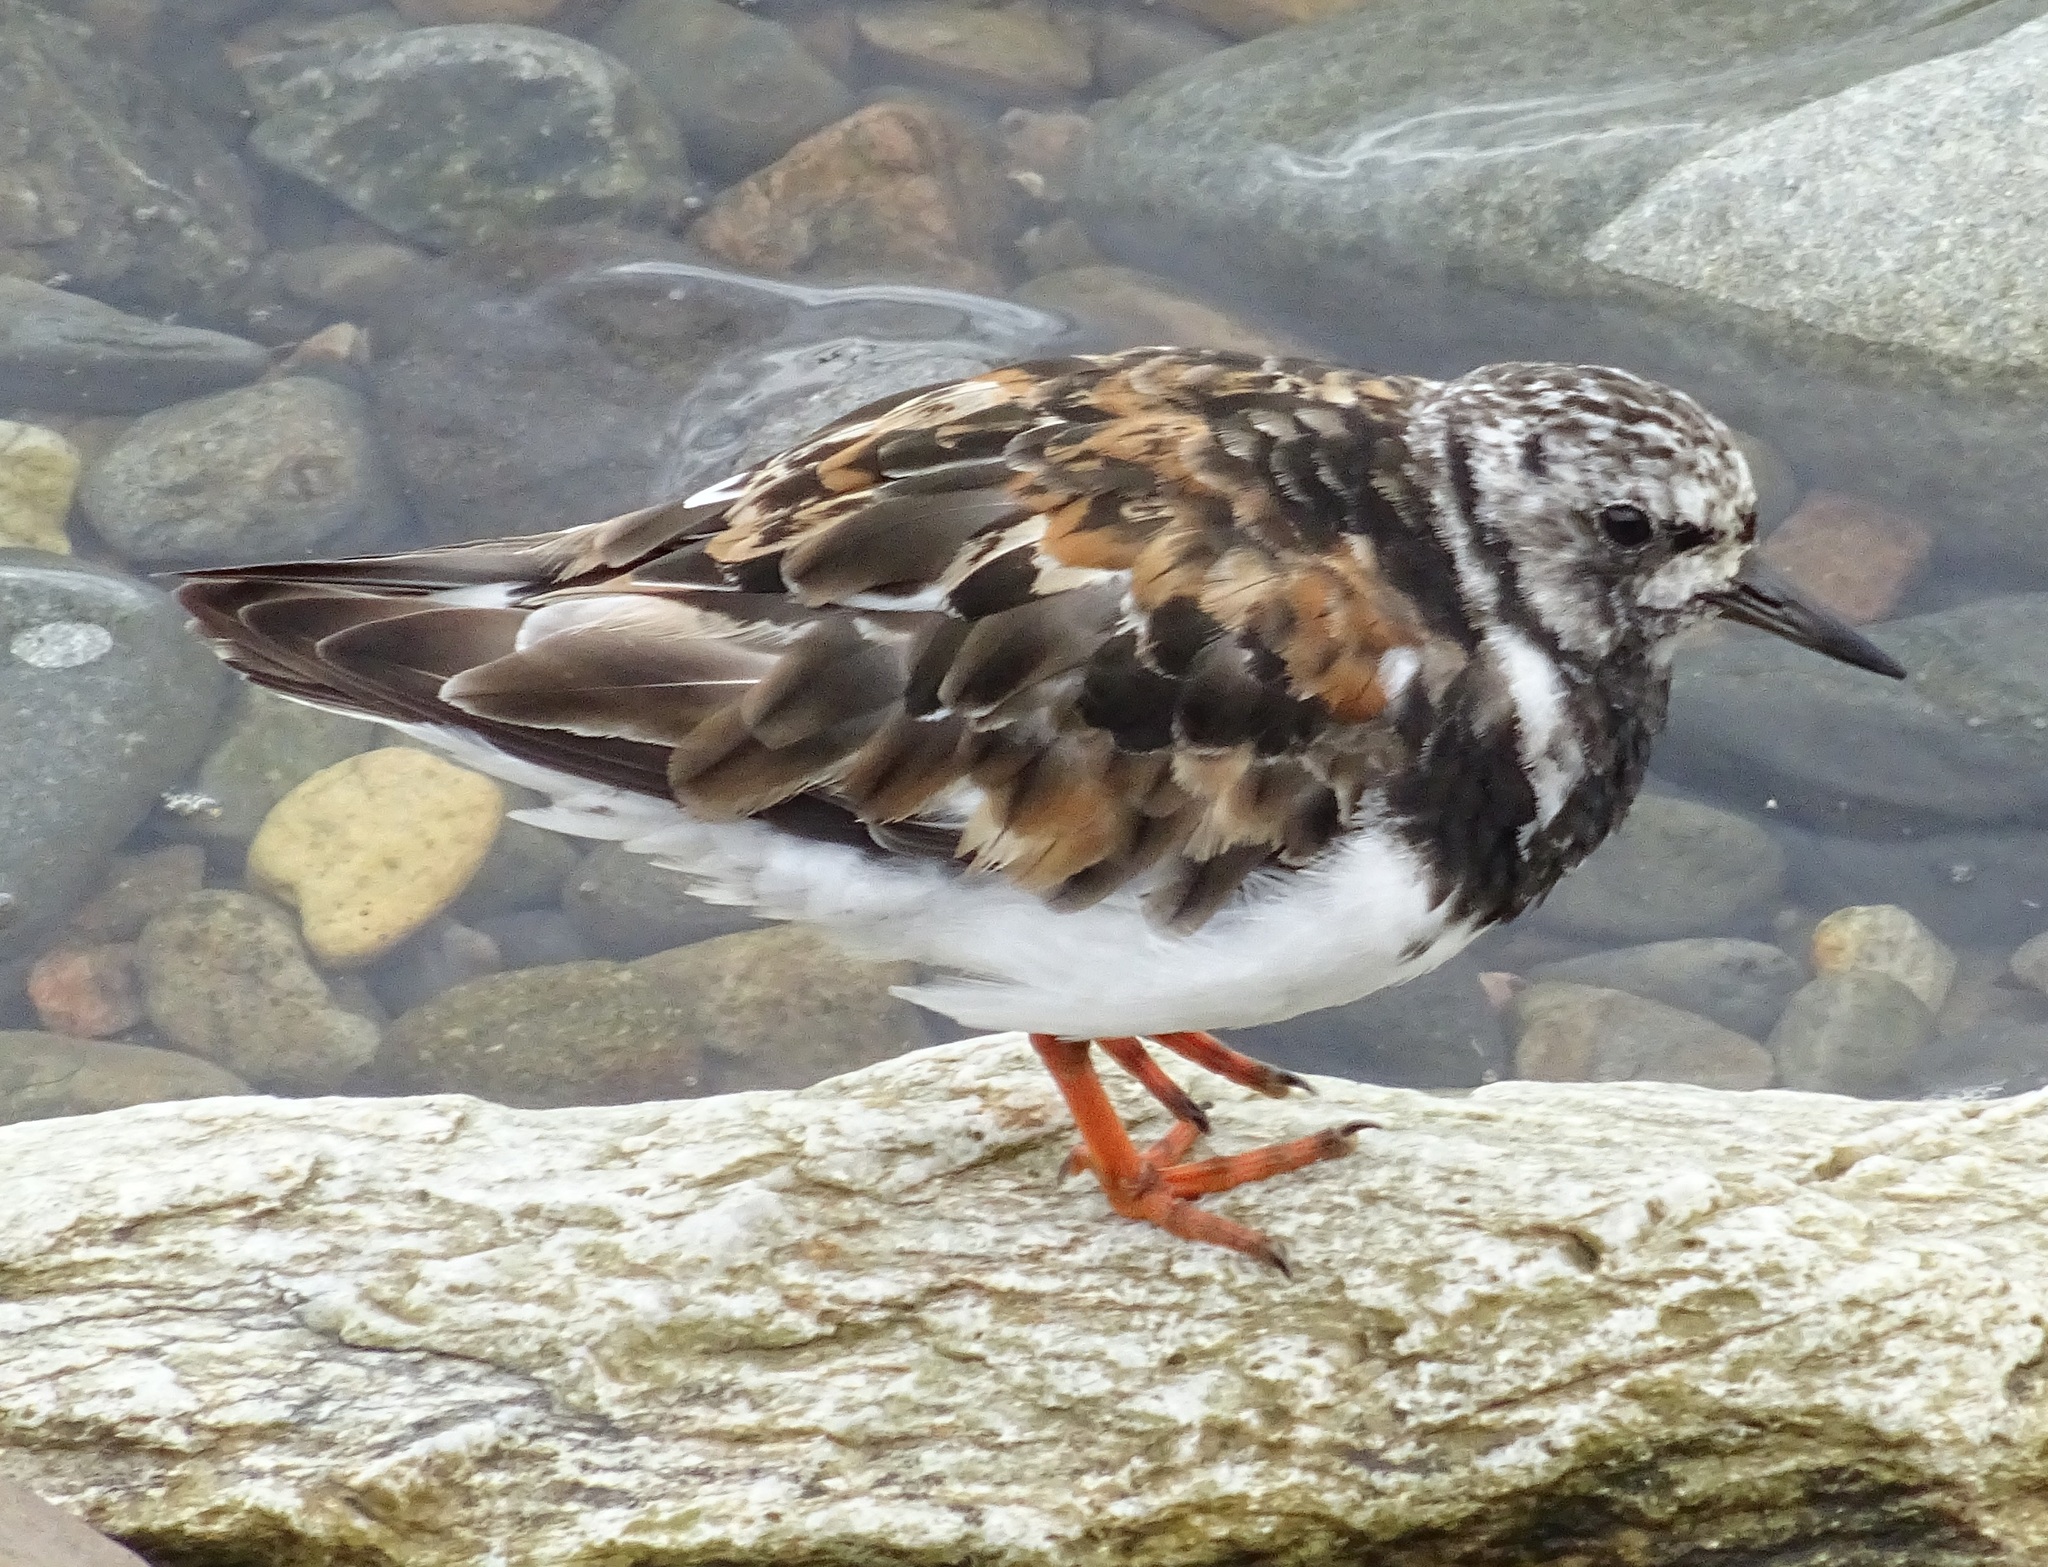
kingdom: Animalia
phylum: Chordata
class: Aves
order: Charadriiformes
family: Scolopacidae
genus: Arenaria
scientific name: Arenaria interpres
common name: Ruddy turnstone
